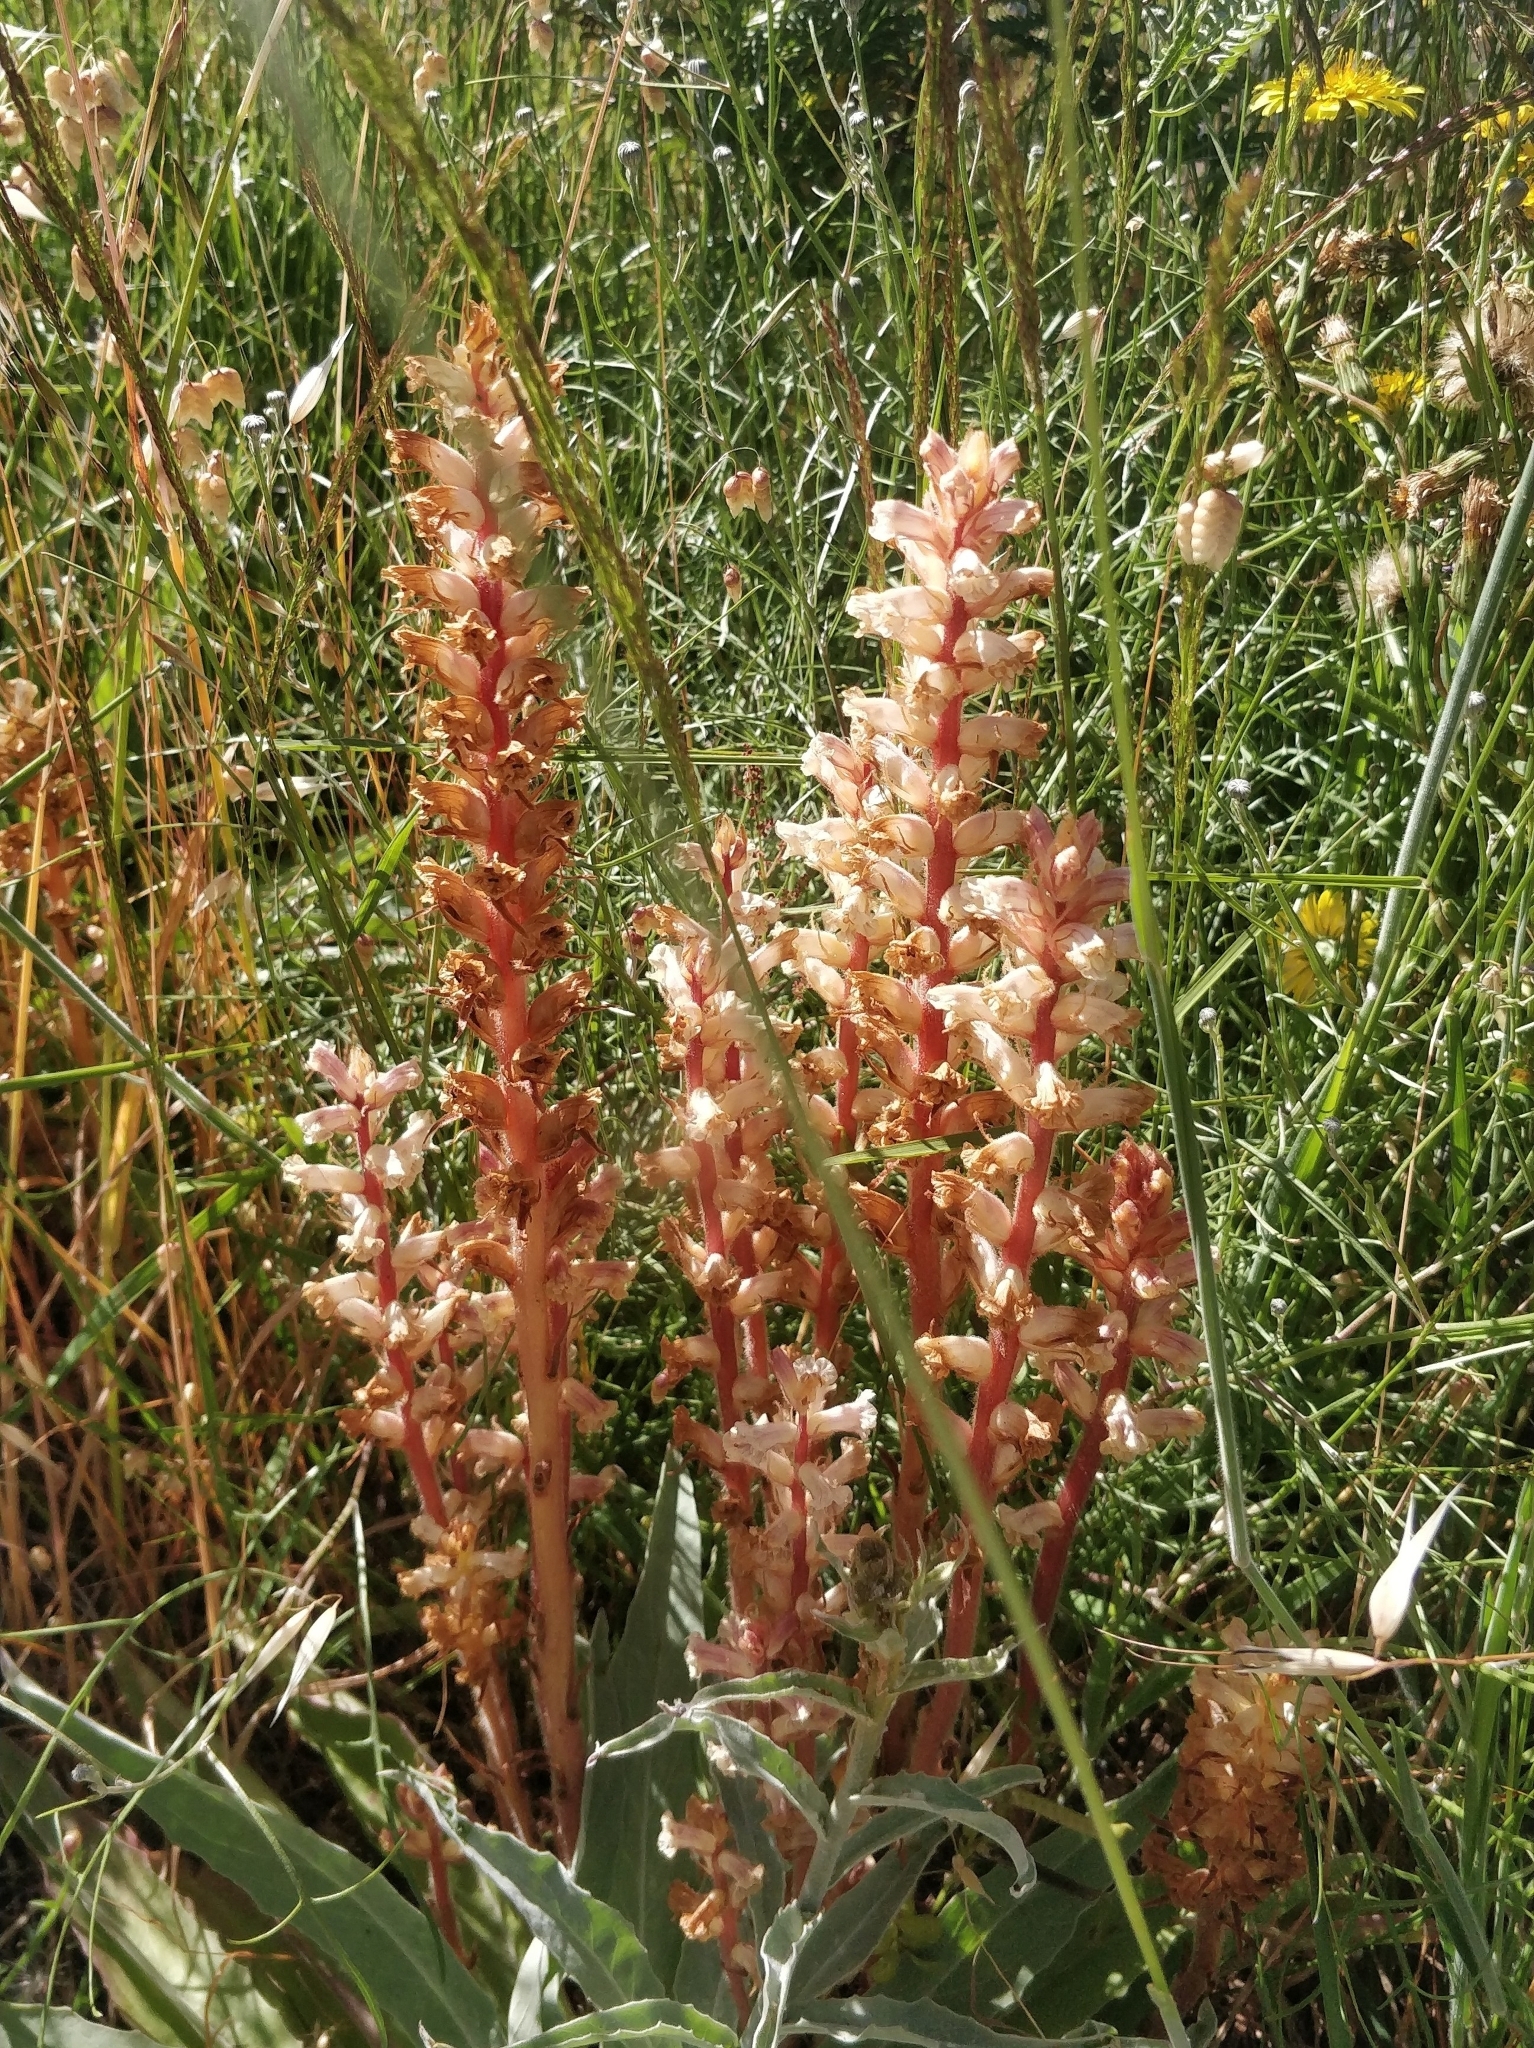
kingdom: Plantae
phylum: Tracheophyta
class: Magnoliopsida
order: Lamiales
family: Orobanchaceae
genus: Orobanche
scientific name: Orobanche minor
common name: Common broomrape
